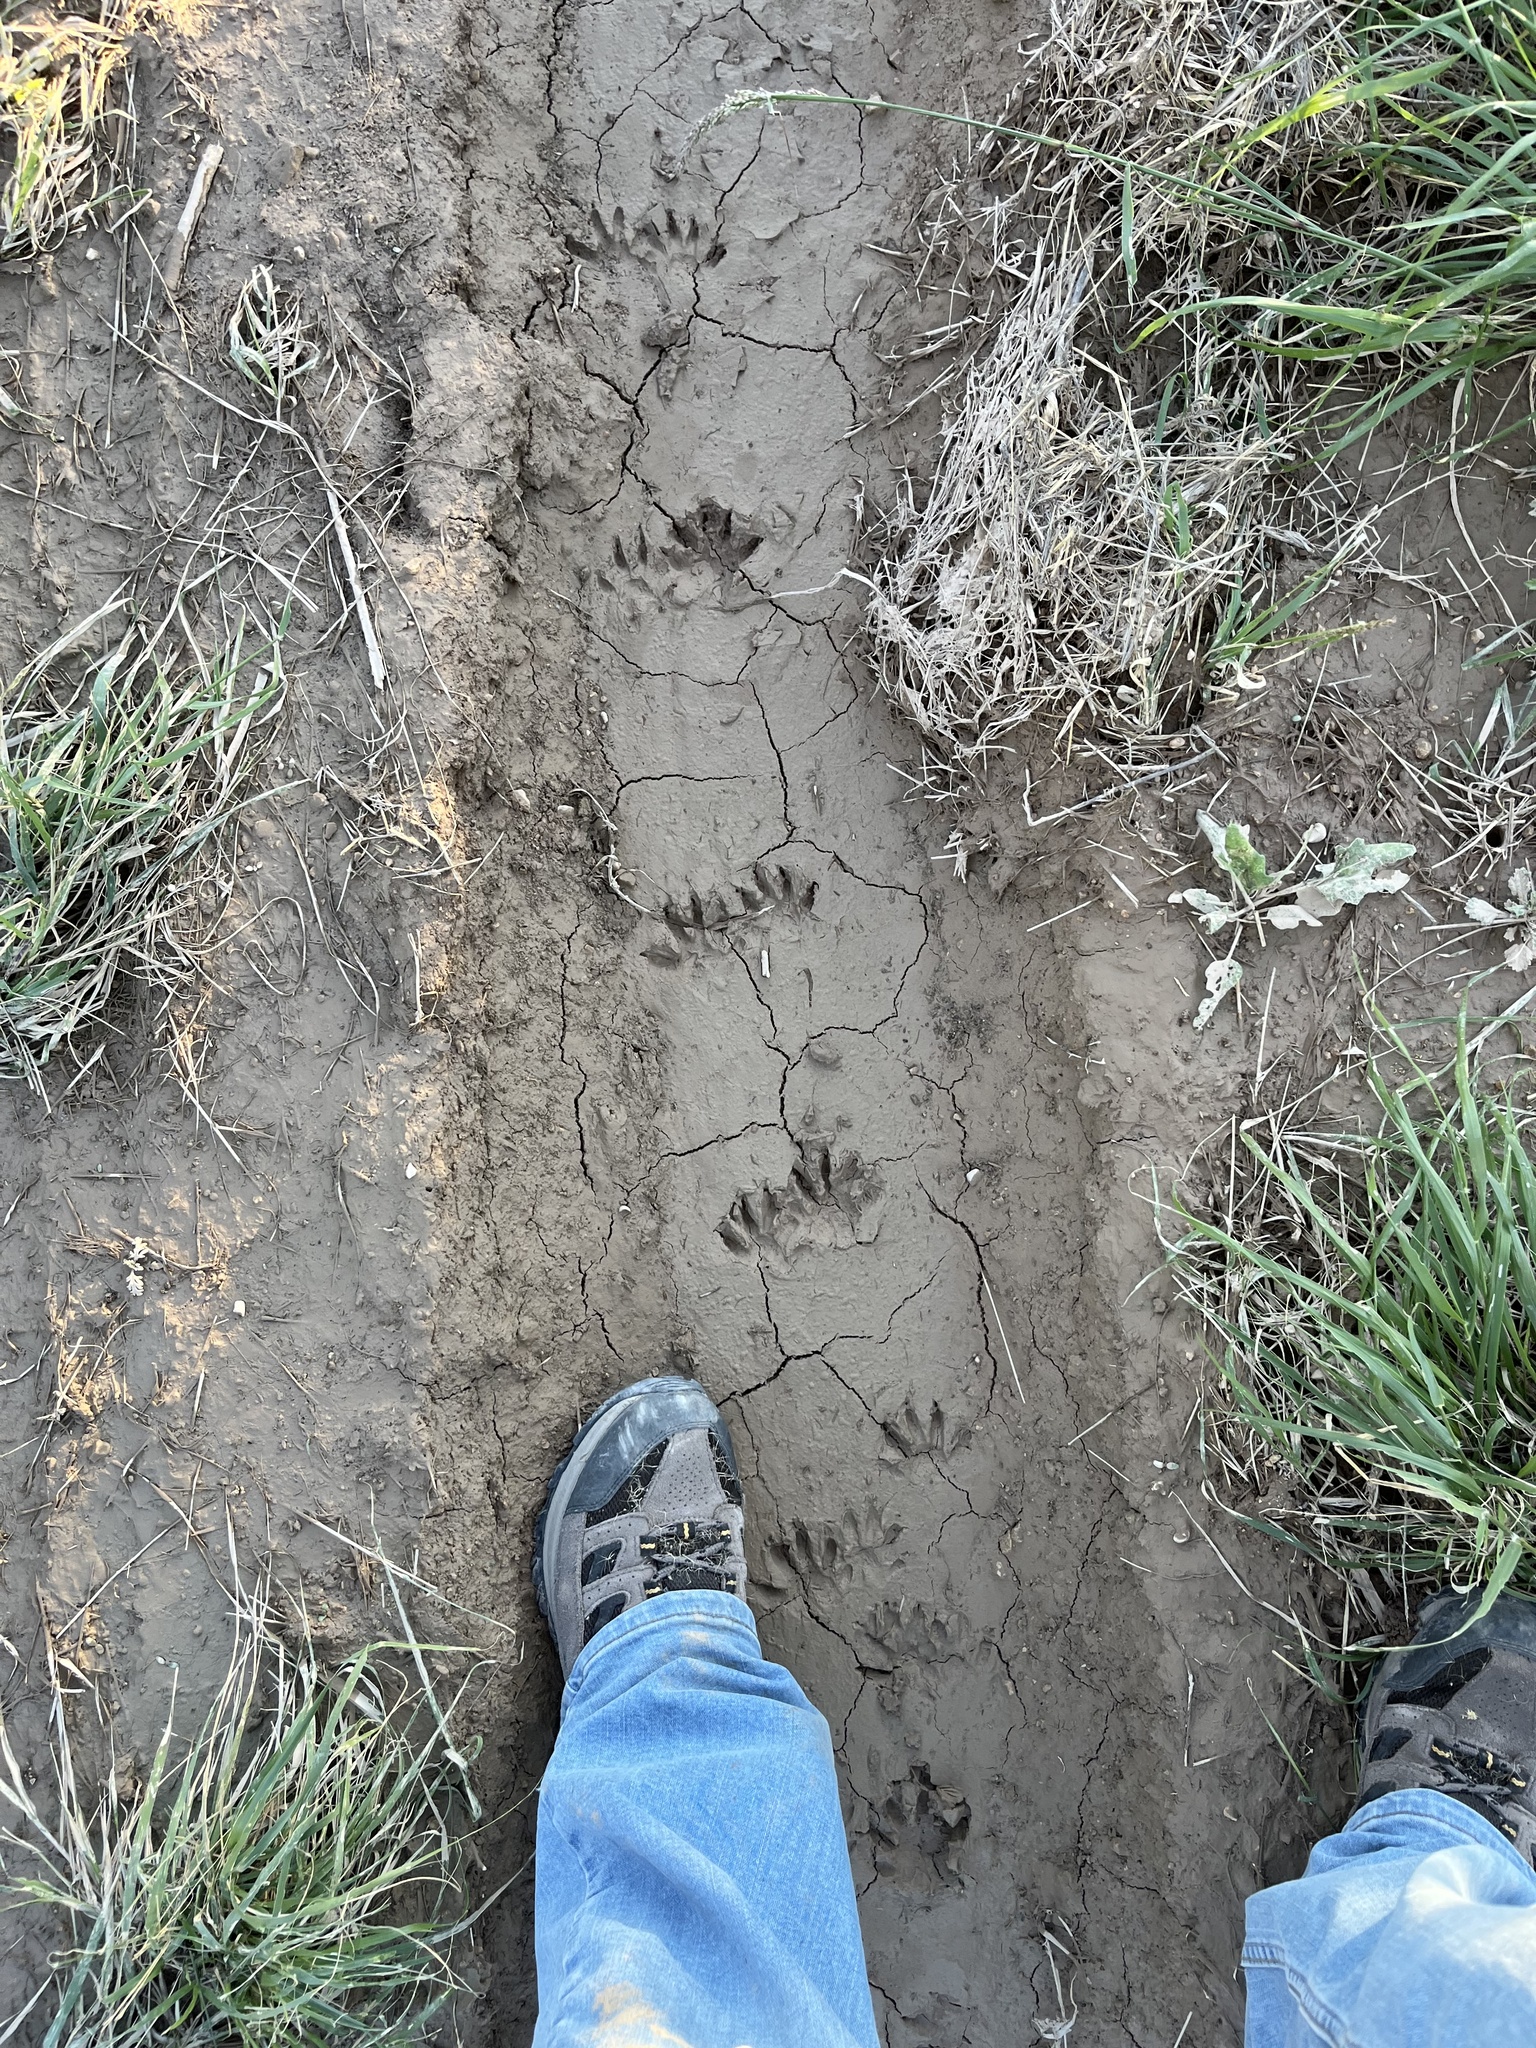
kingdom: Animalia
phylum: Chordata
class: Mammalia
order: Carnivora
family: Procyonidae
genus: Procyon
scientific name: Procyon lotor
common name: Raccoon
